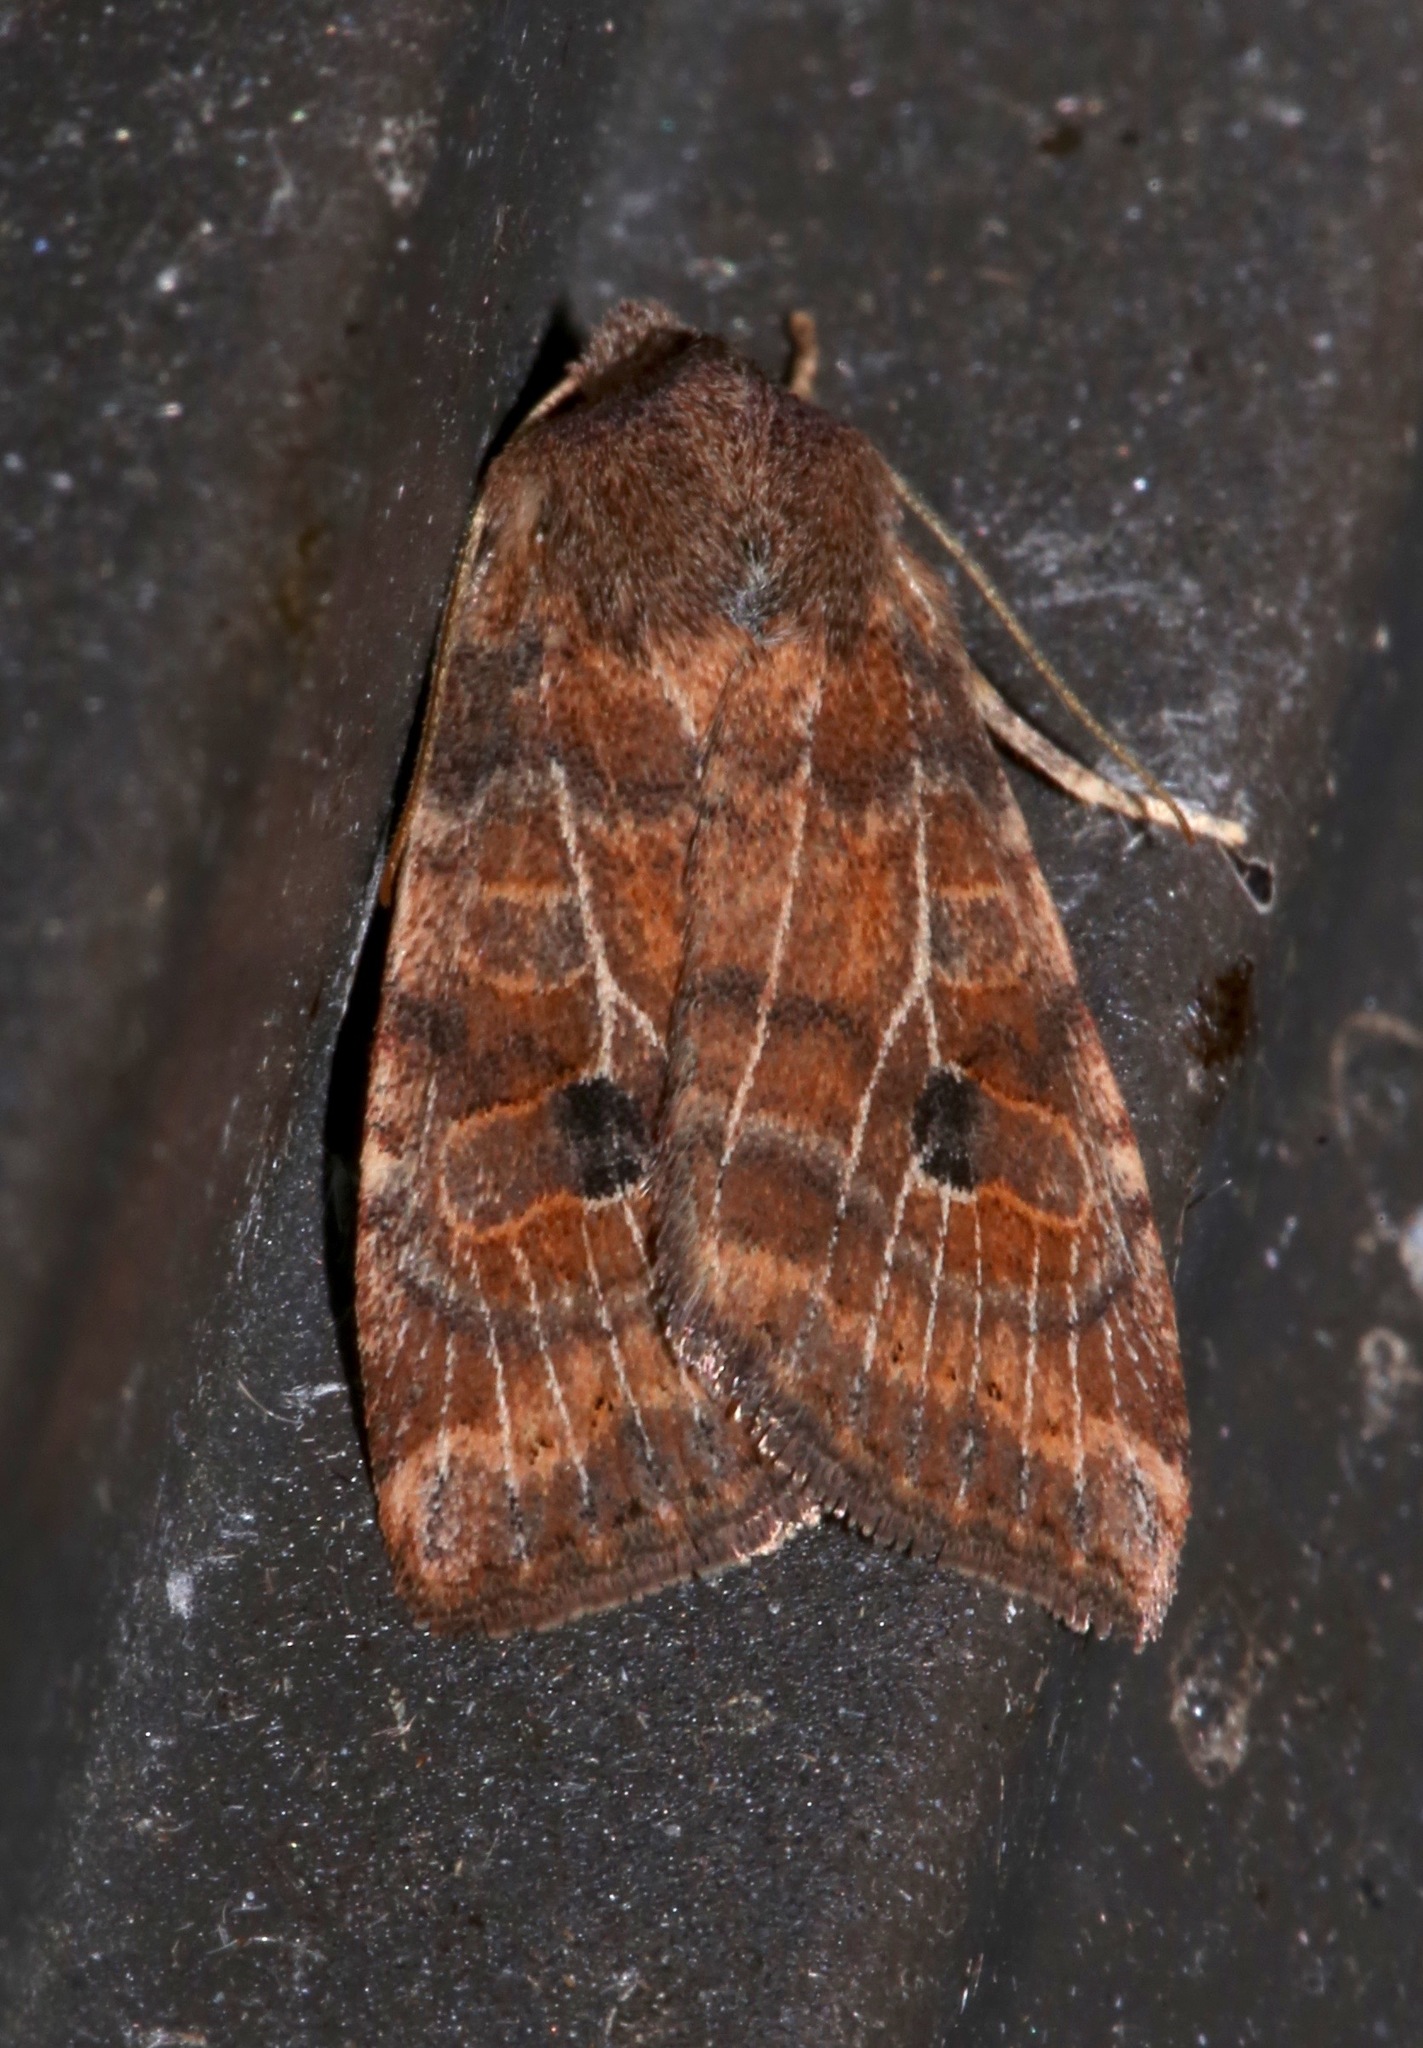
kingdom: Animalia
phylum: Arthropoda
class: Insecta
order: Lepidoptera
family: Noctuidae
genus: Anathix
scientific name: Anathix puta
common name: Puta sallow
